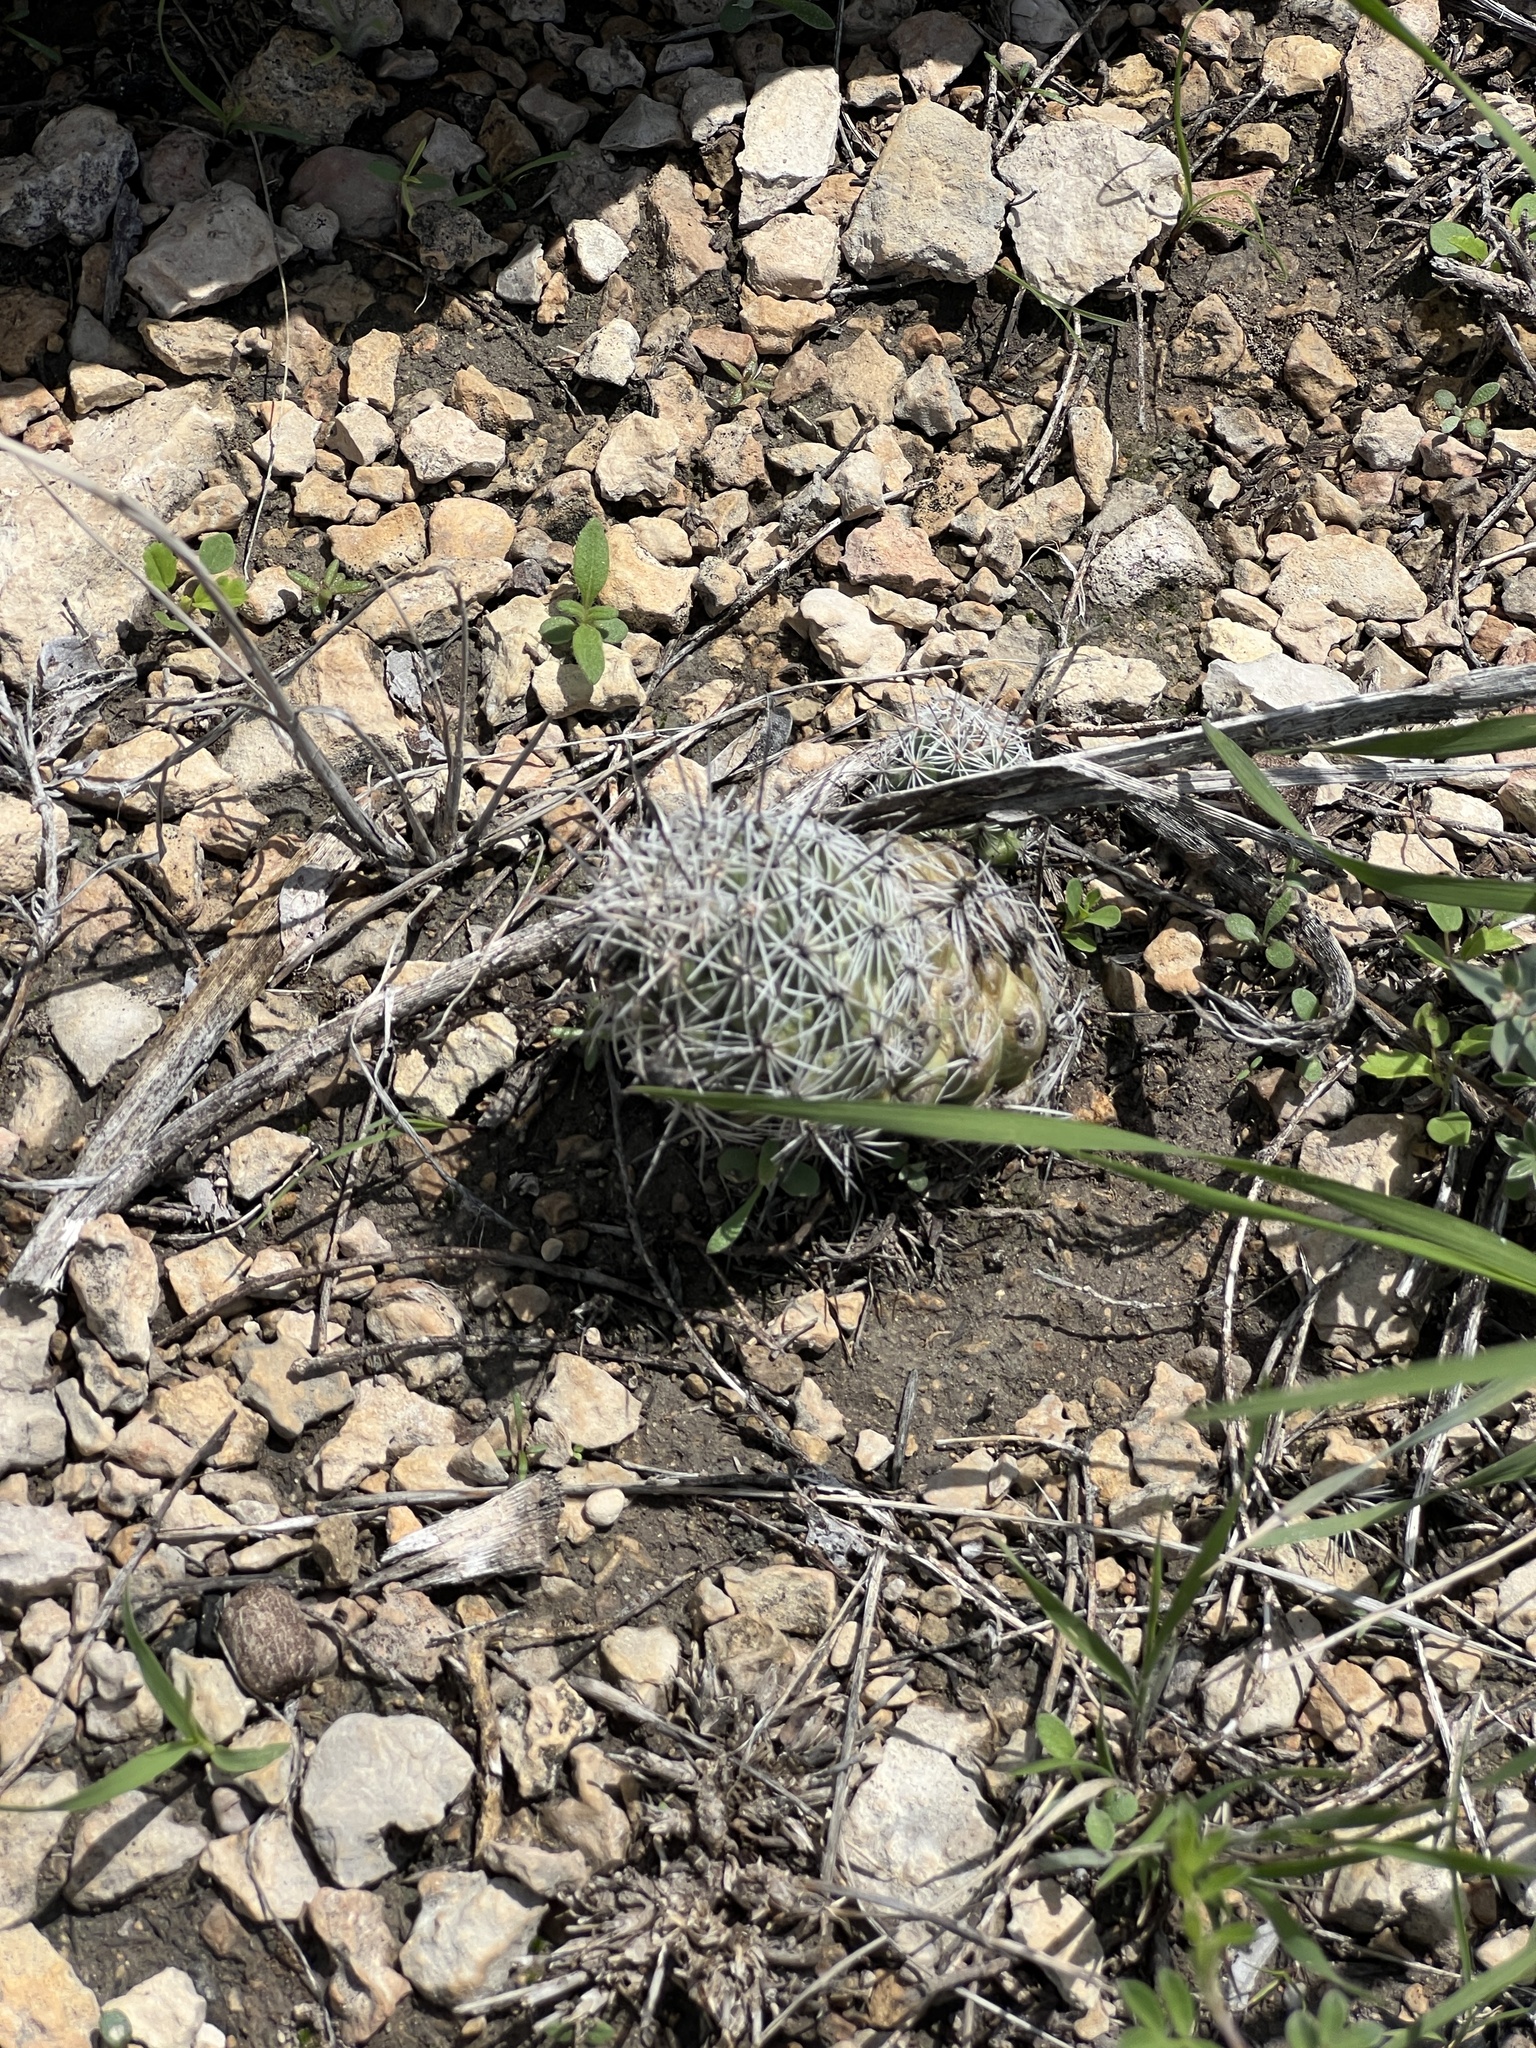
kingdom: Plantae
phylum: Tracheophyta
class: Magnoliopsida
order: Caryophyllales
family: Cactaceae
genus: Cochemiea
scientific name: Cochemiea conoidea
